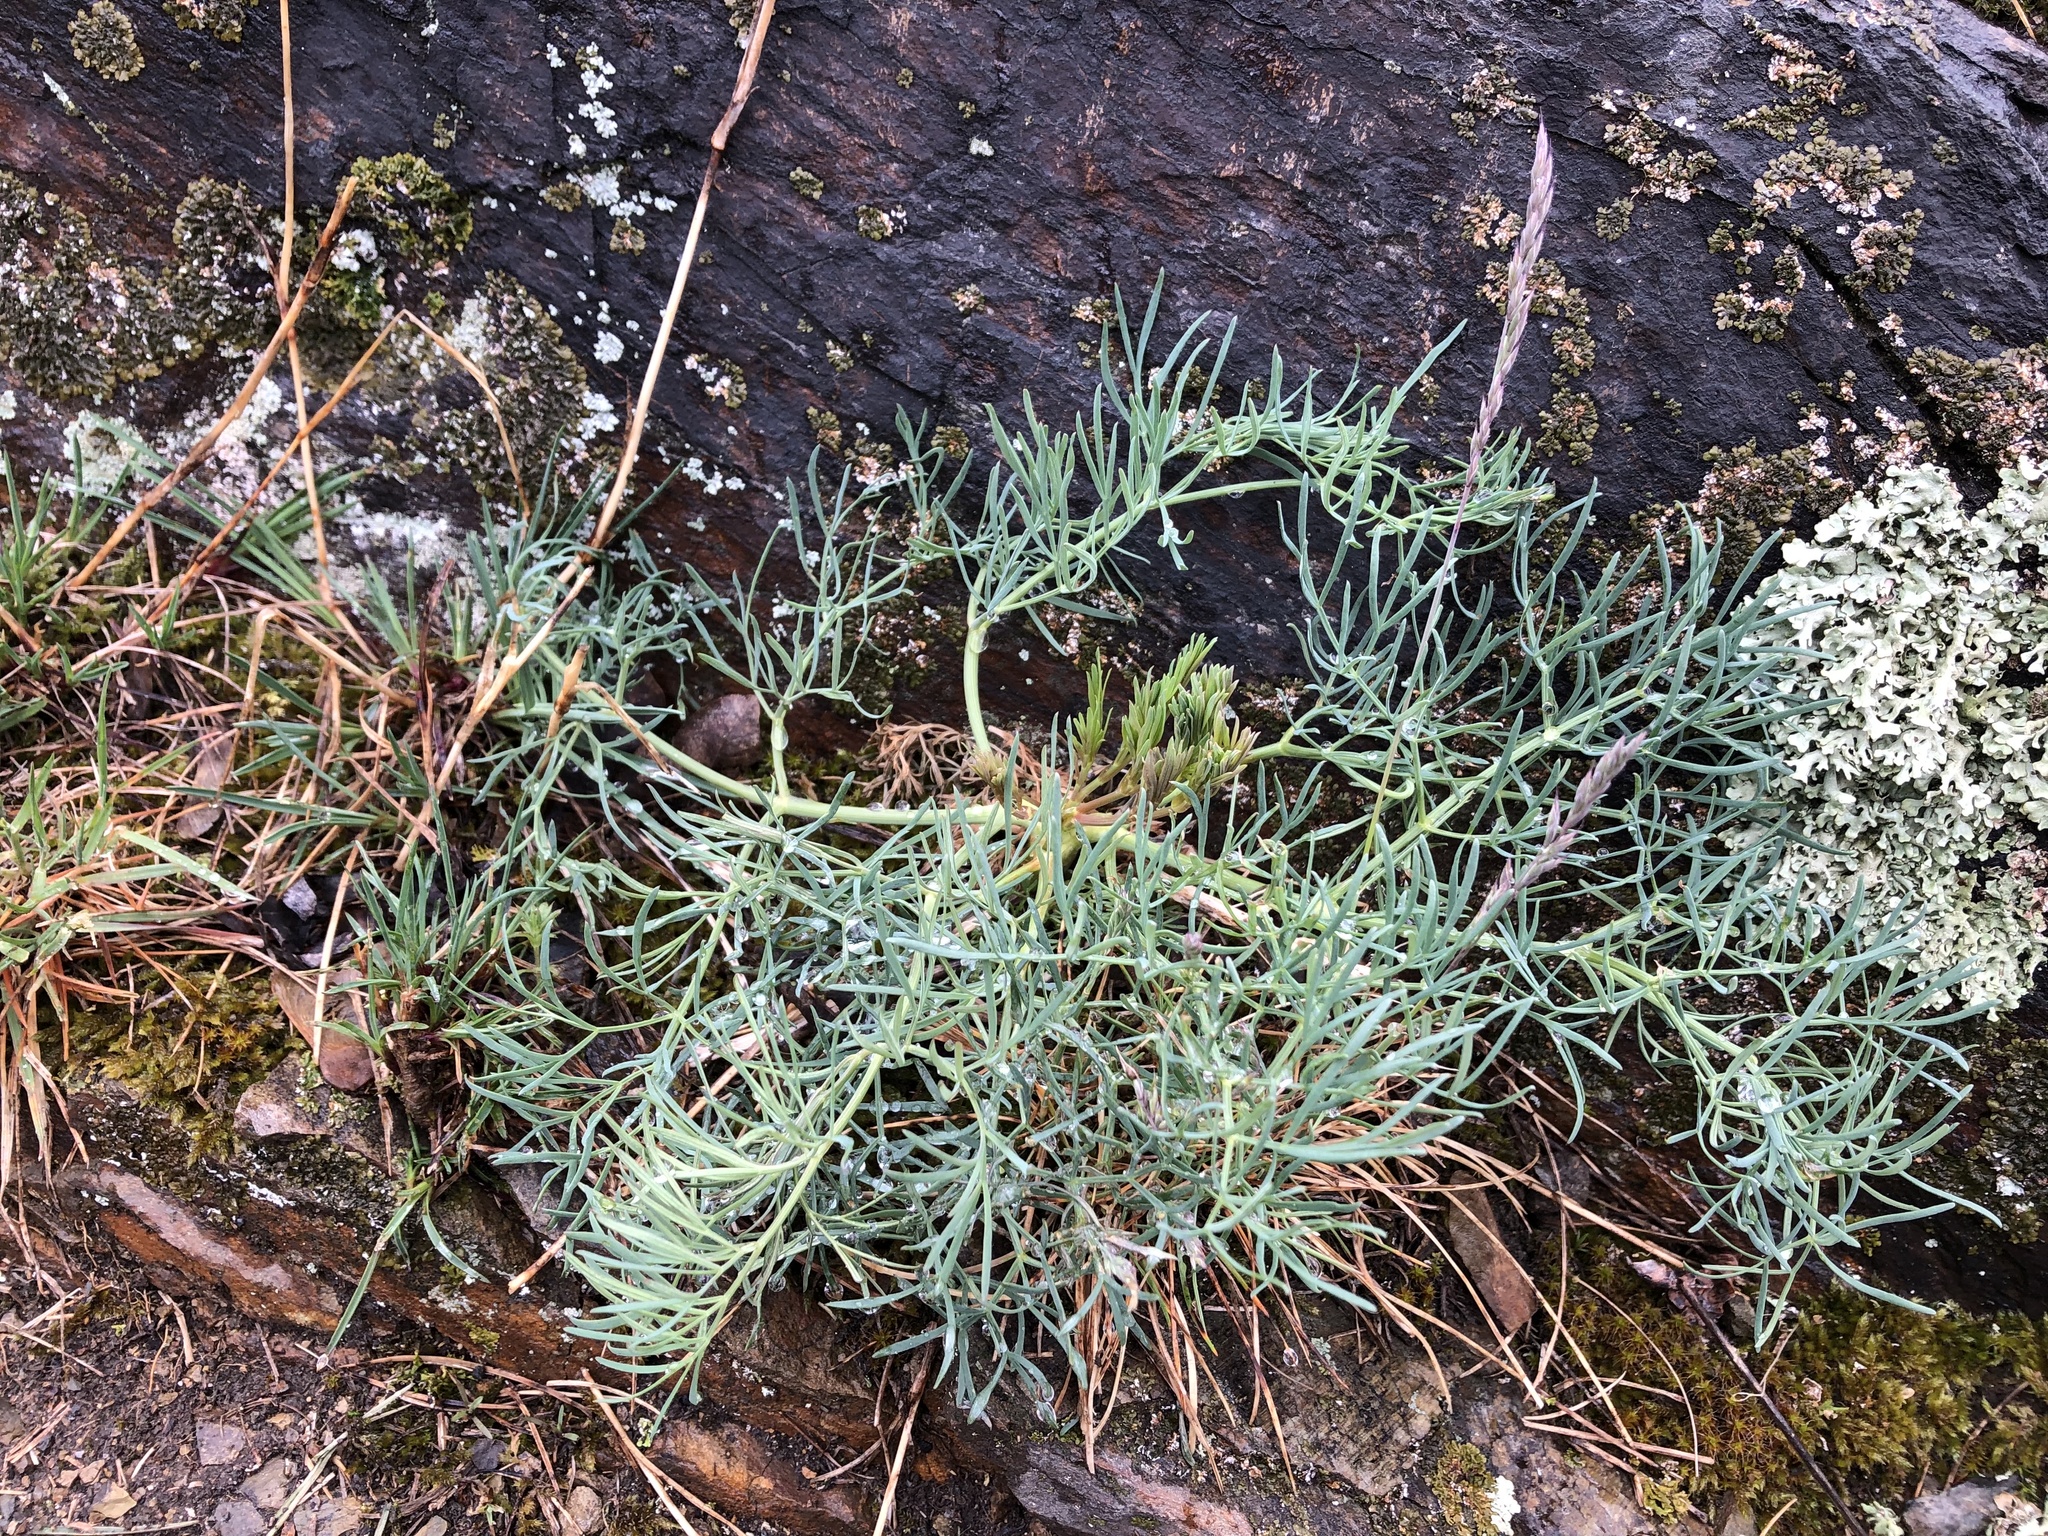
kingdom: Plantae
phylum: Tracheophyta
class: Magnoliopsida
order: Apiales
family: Apiaceae
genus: Seseli
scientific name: Seseli osseum
